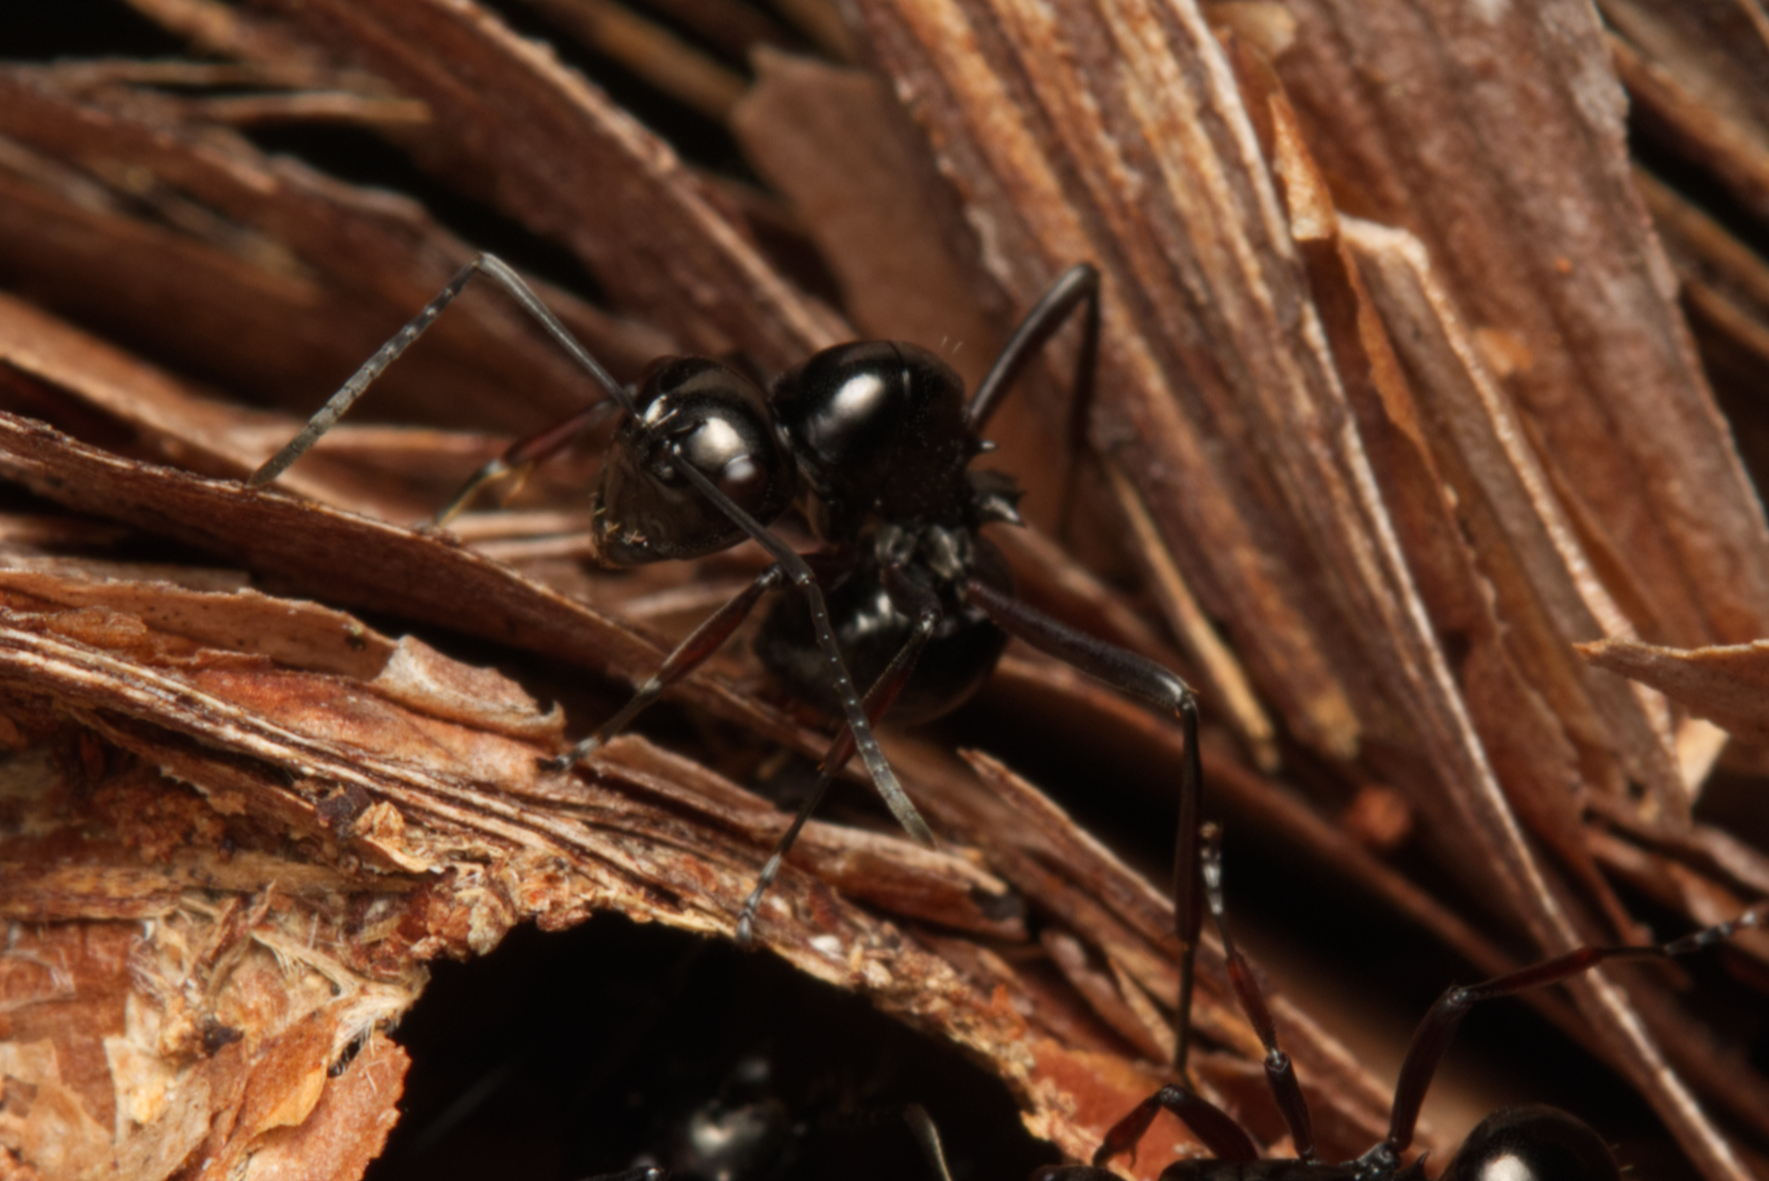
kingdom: Animalia
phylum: Arthropoda
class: Insecta
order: Hymenoptera
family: Formicidae
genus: Polyrhachis
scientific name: Polyrhachis australis
